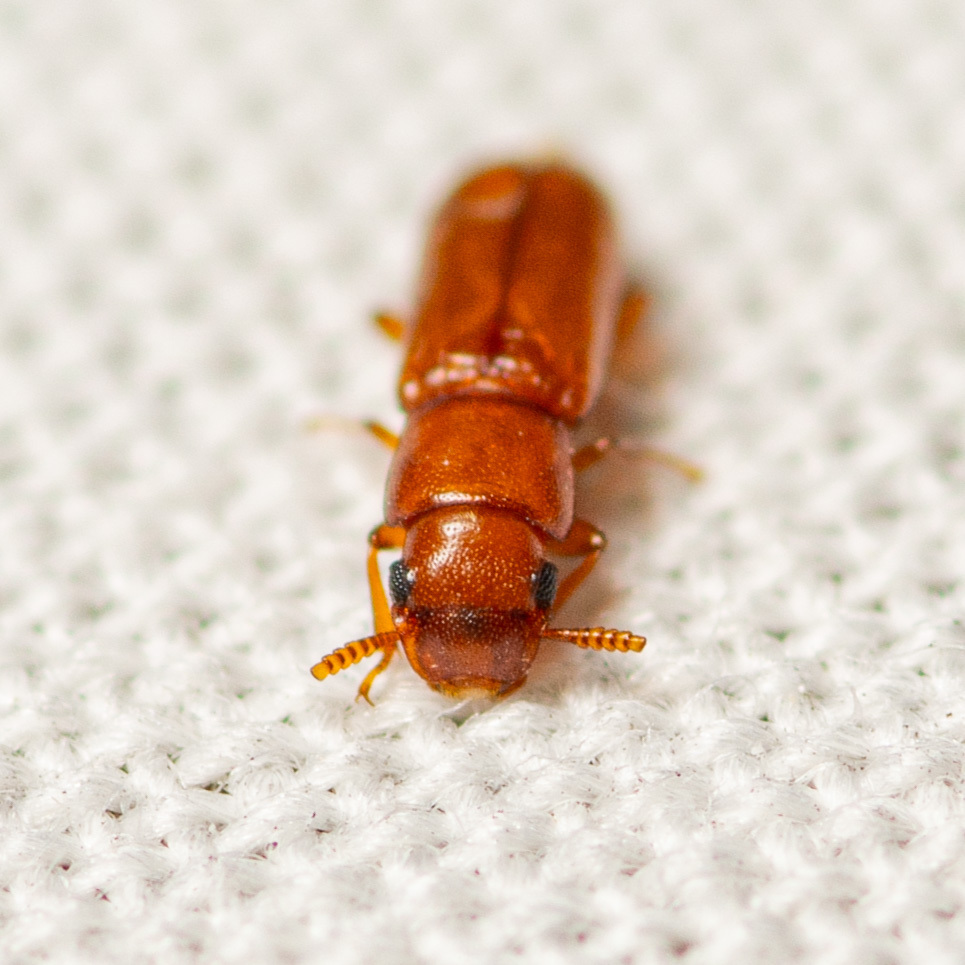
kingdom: Animalia
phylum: Arthropoda
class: Insecta
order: Coleoptera
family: Tenebrionidae
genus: Latheticus
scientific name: Latheticus oryzae
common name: Long-headed flour beetle
